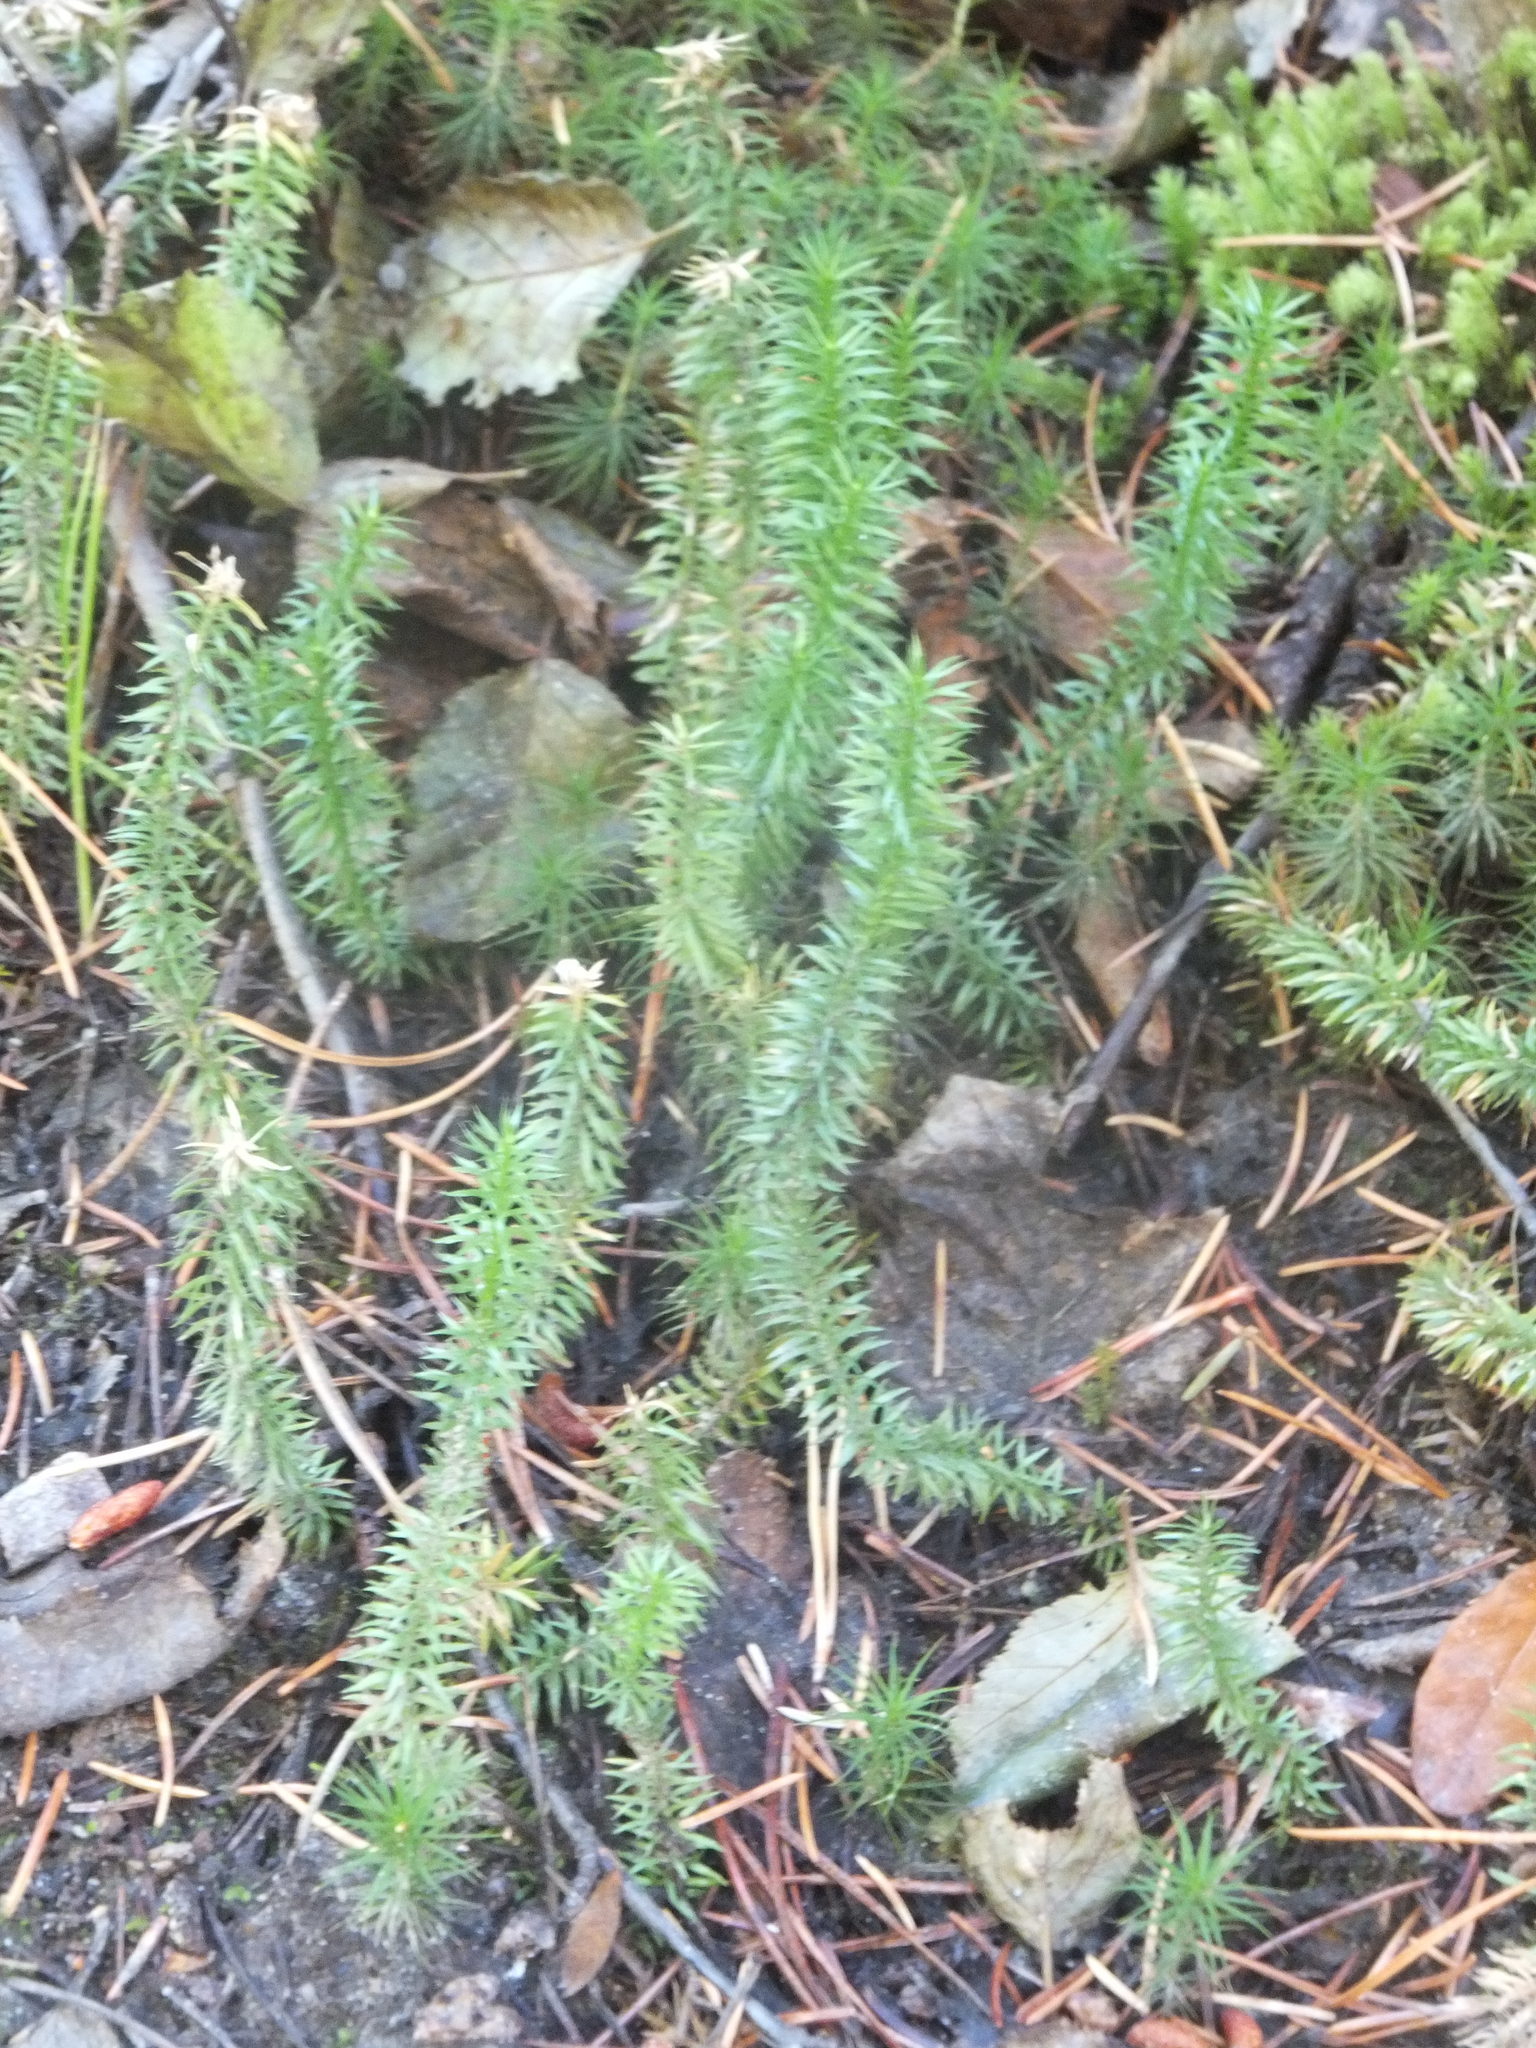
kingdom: Plantae
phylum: Tracheophyta
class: Lycopodiopsida
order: Lycopodiales
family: Lycopodiaceae
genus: Spinulum
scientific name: Spinulum annotinum
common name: Interrupted club-moss
